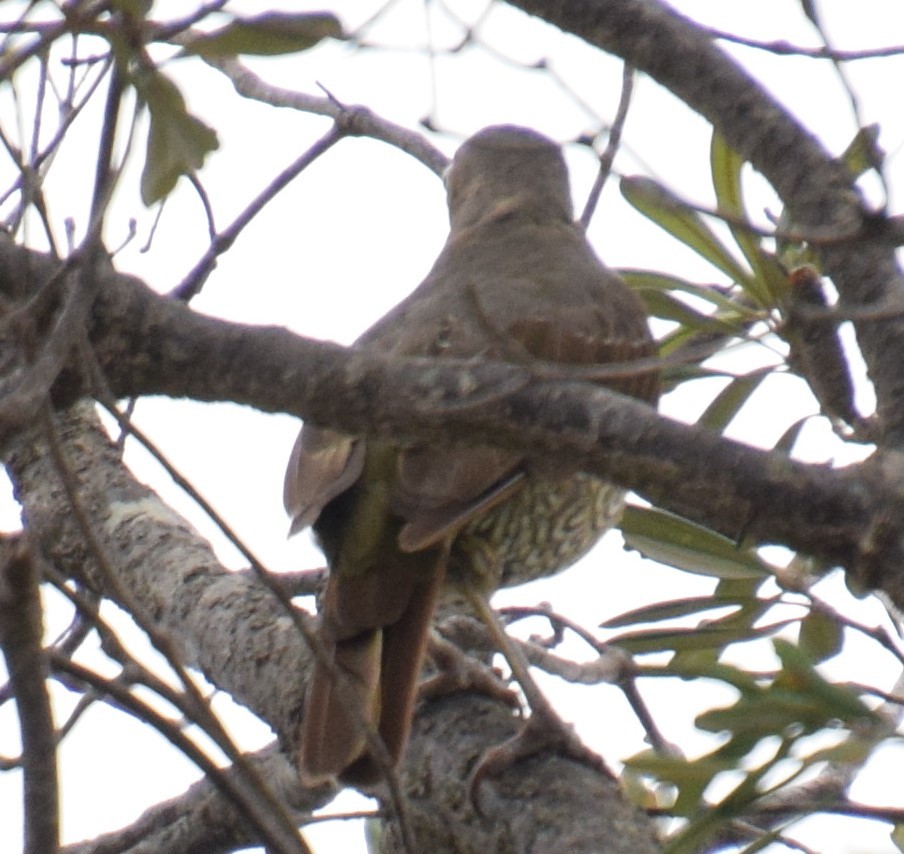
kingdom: Animalia
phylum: Chordata
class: Aves
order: Passeriformes
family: Ptilonorhynchidae
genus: Ptilonorhynchus
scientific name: Ptilonorhynchus violaceus
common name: Satin bowerbird
